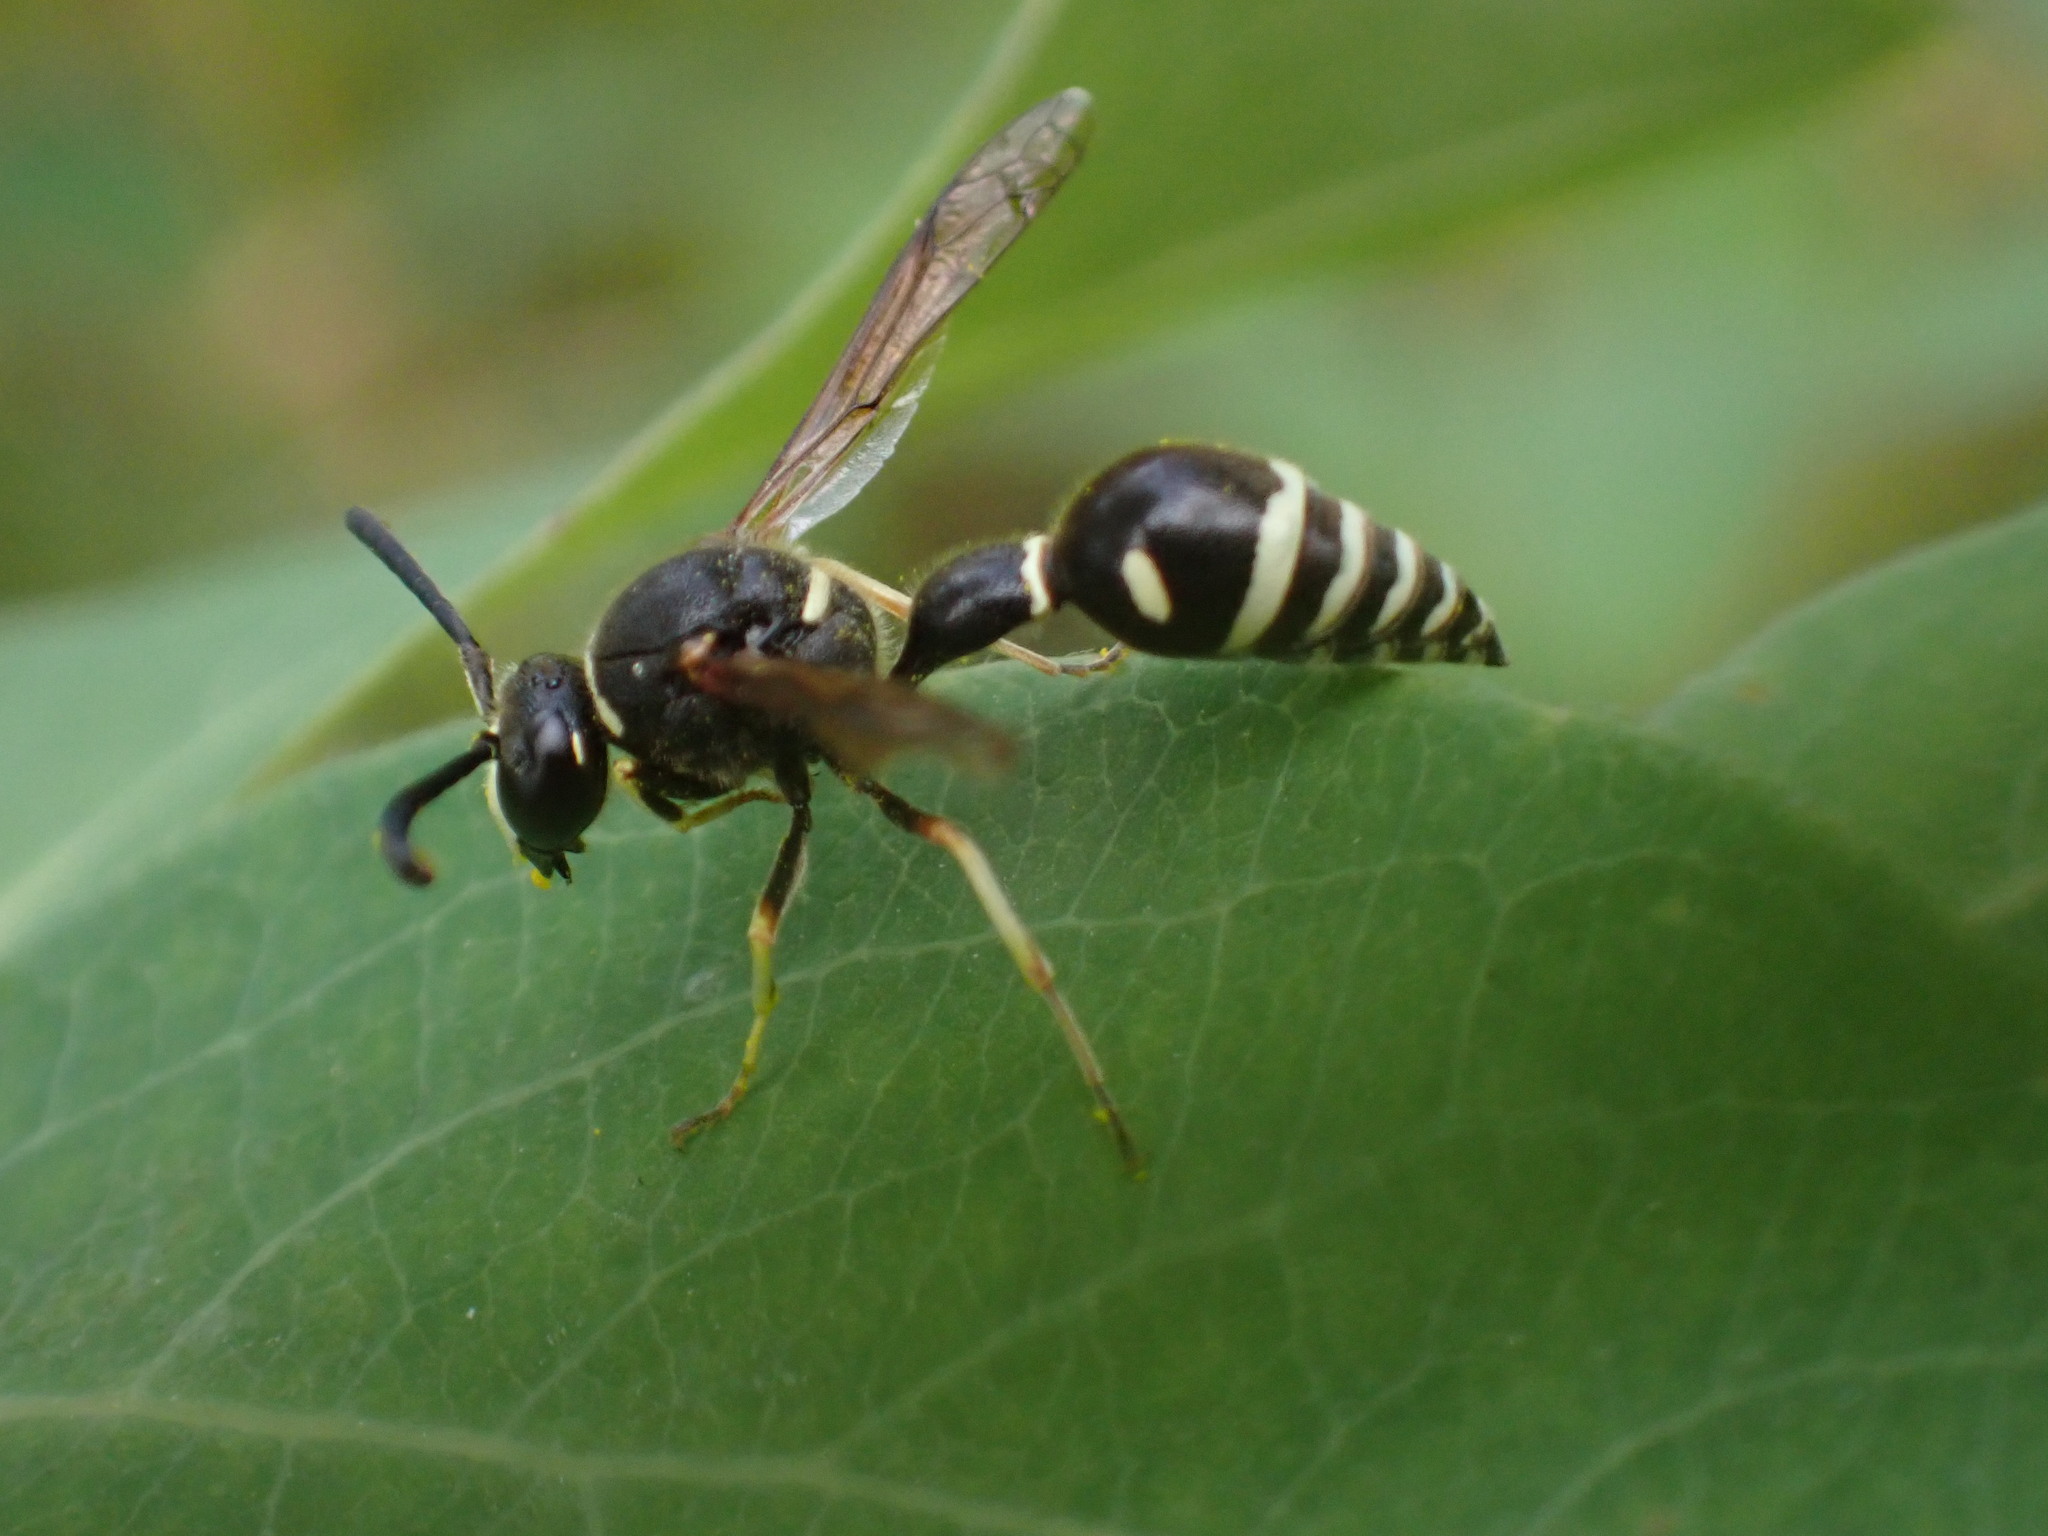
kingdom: Animalia
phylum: Arthropoda
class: Insecta
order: Hymenoptera
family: Vespidae
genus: Eumenes
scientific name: Eumenes crucifera
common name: Cross potter wasp
